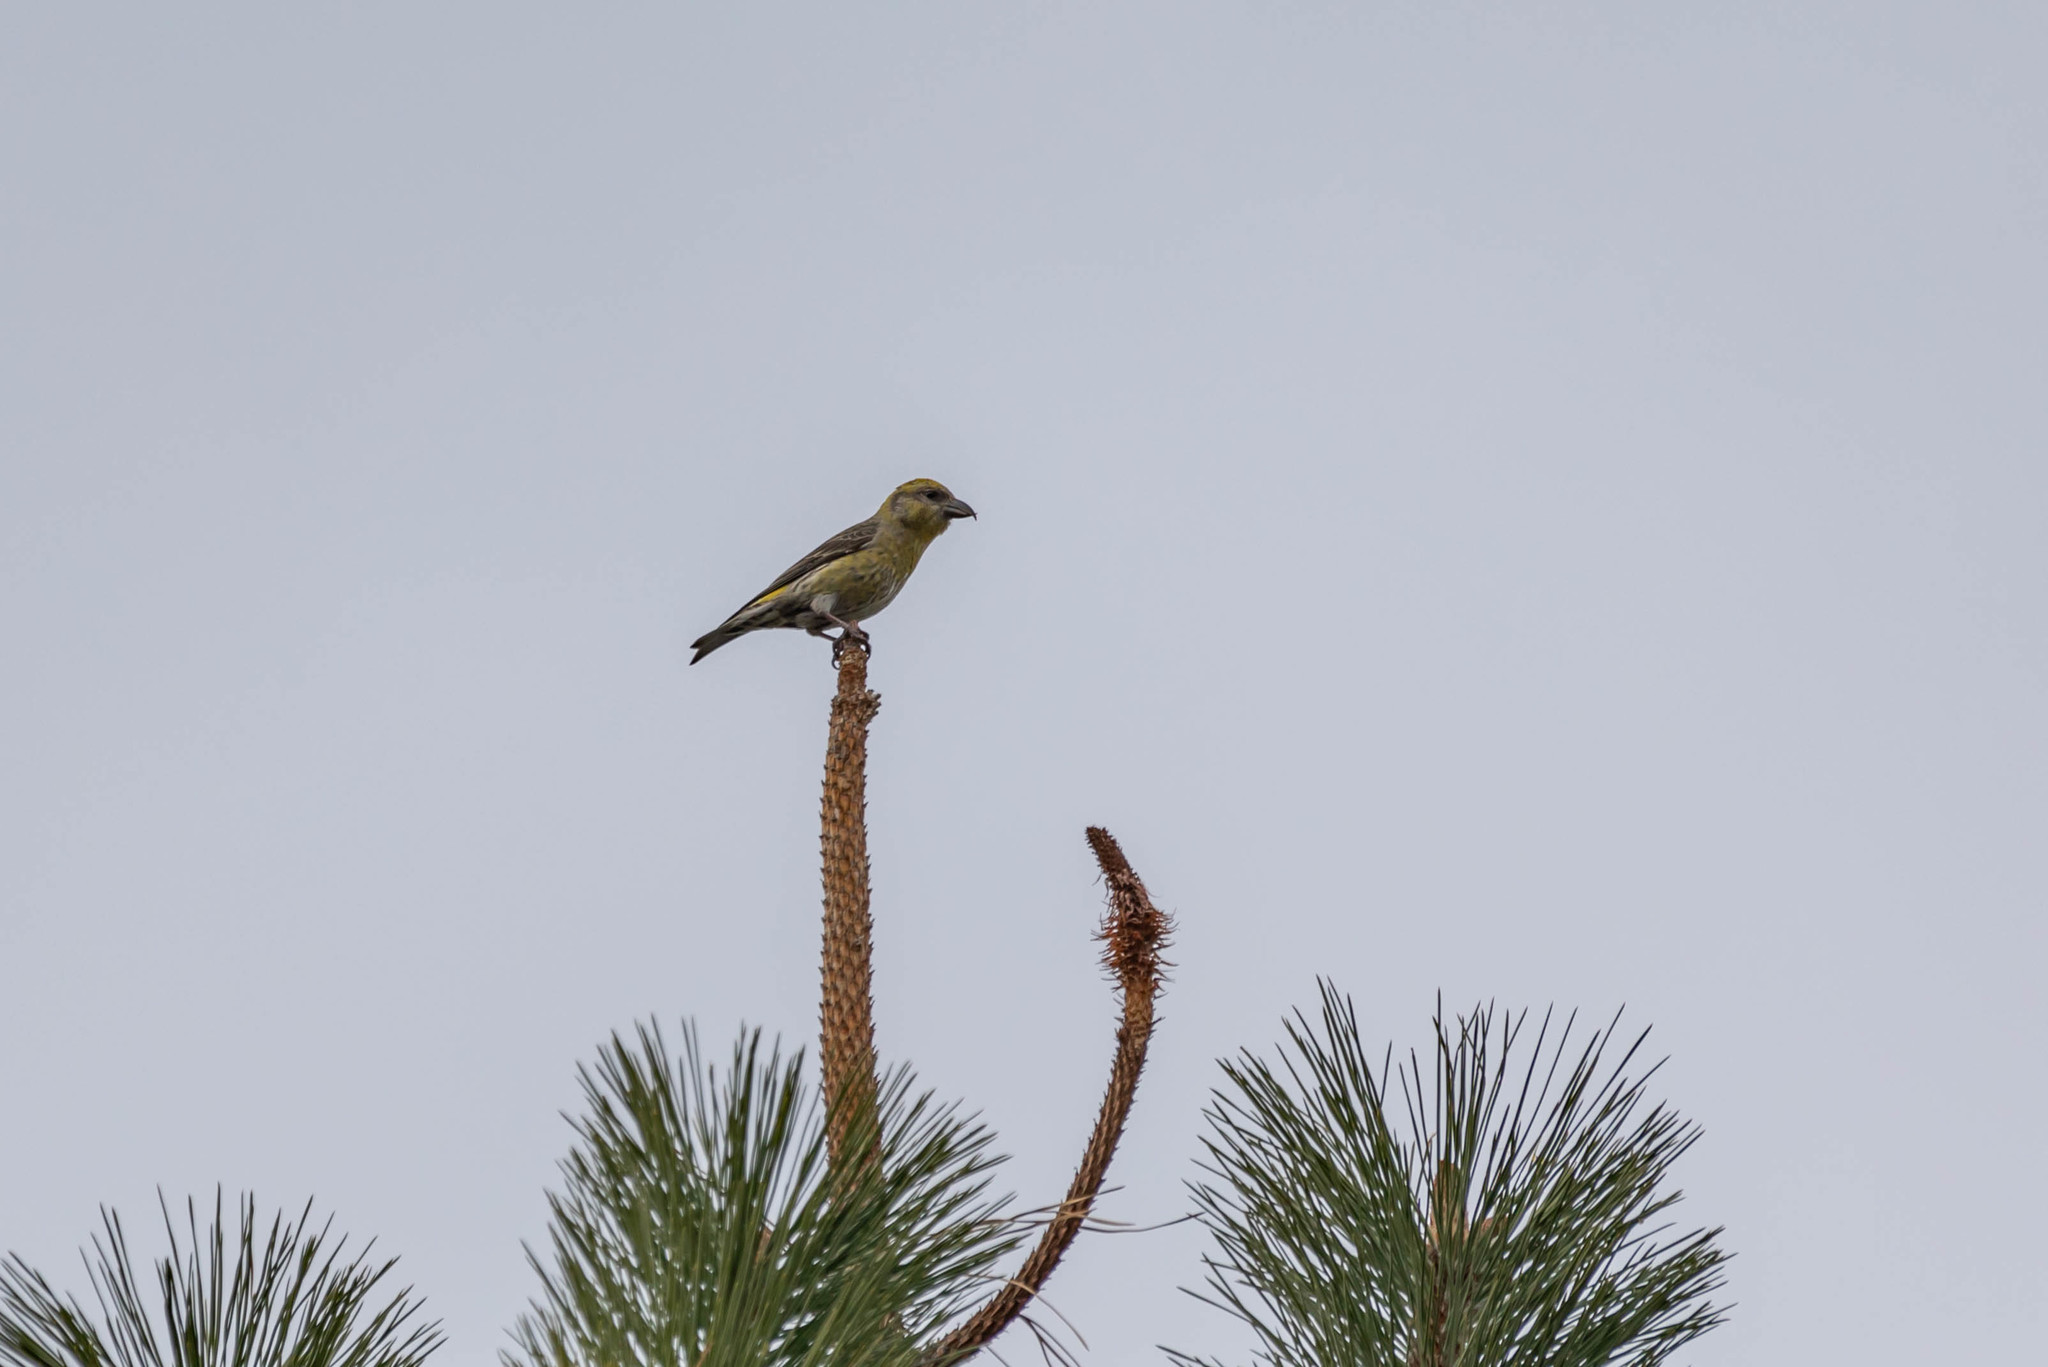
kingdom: Animalia
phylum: Chordata
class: Aves
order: Passeriformes
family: Fringillidae
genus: Loxia
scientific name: Loxia curvirostra
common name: Red crossbill
